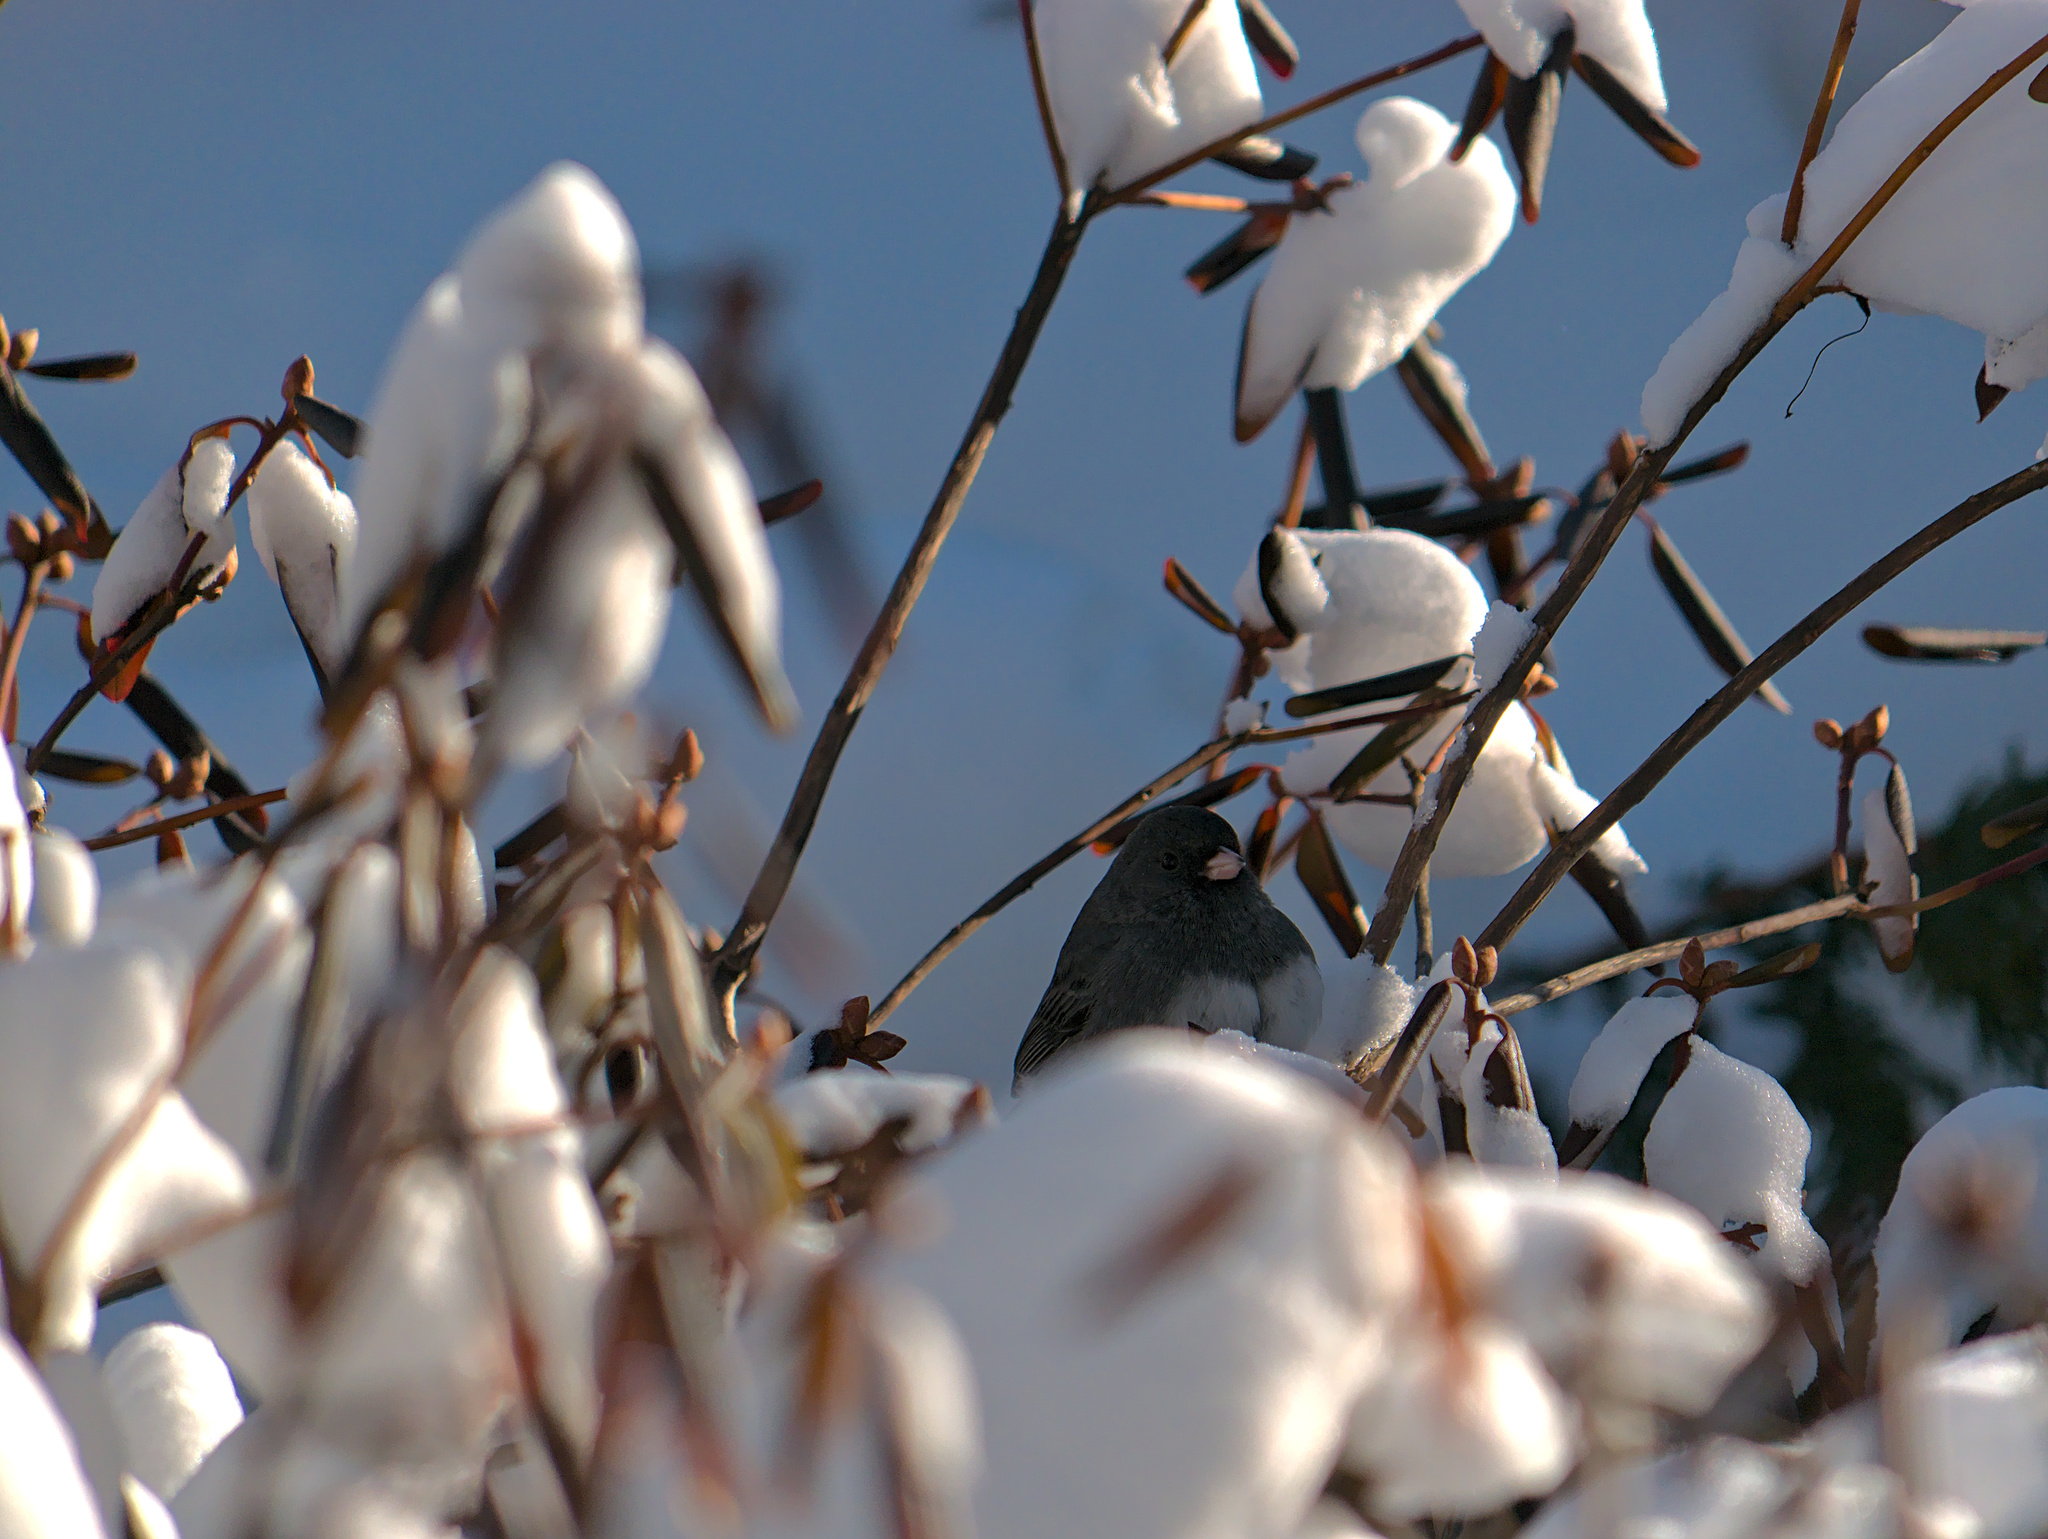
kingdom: Animalia
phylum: Chordata
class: Aves
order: Passeriformes
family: Passerellidae
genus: Junco
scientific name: Junco hyemalis
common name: Dark-eyed junco
